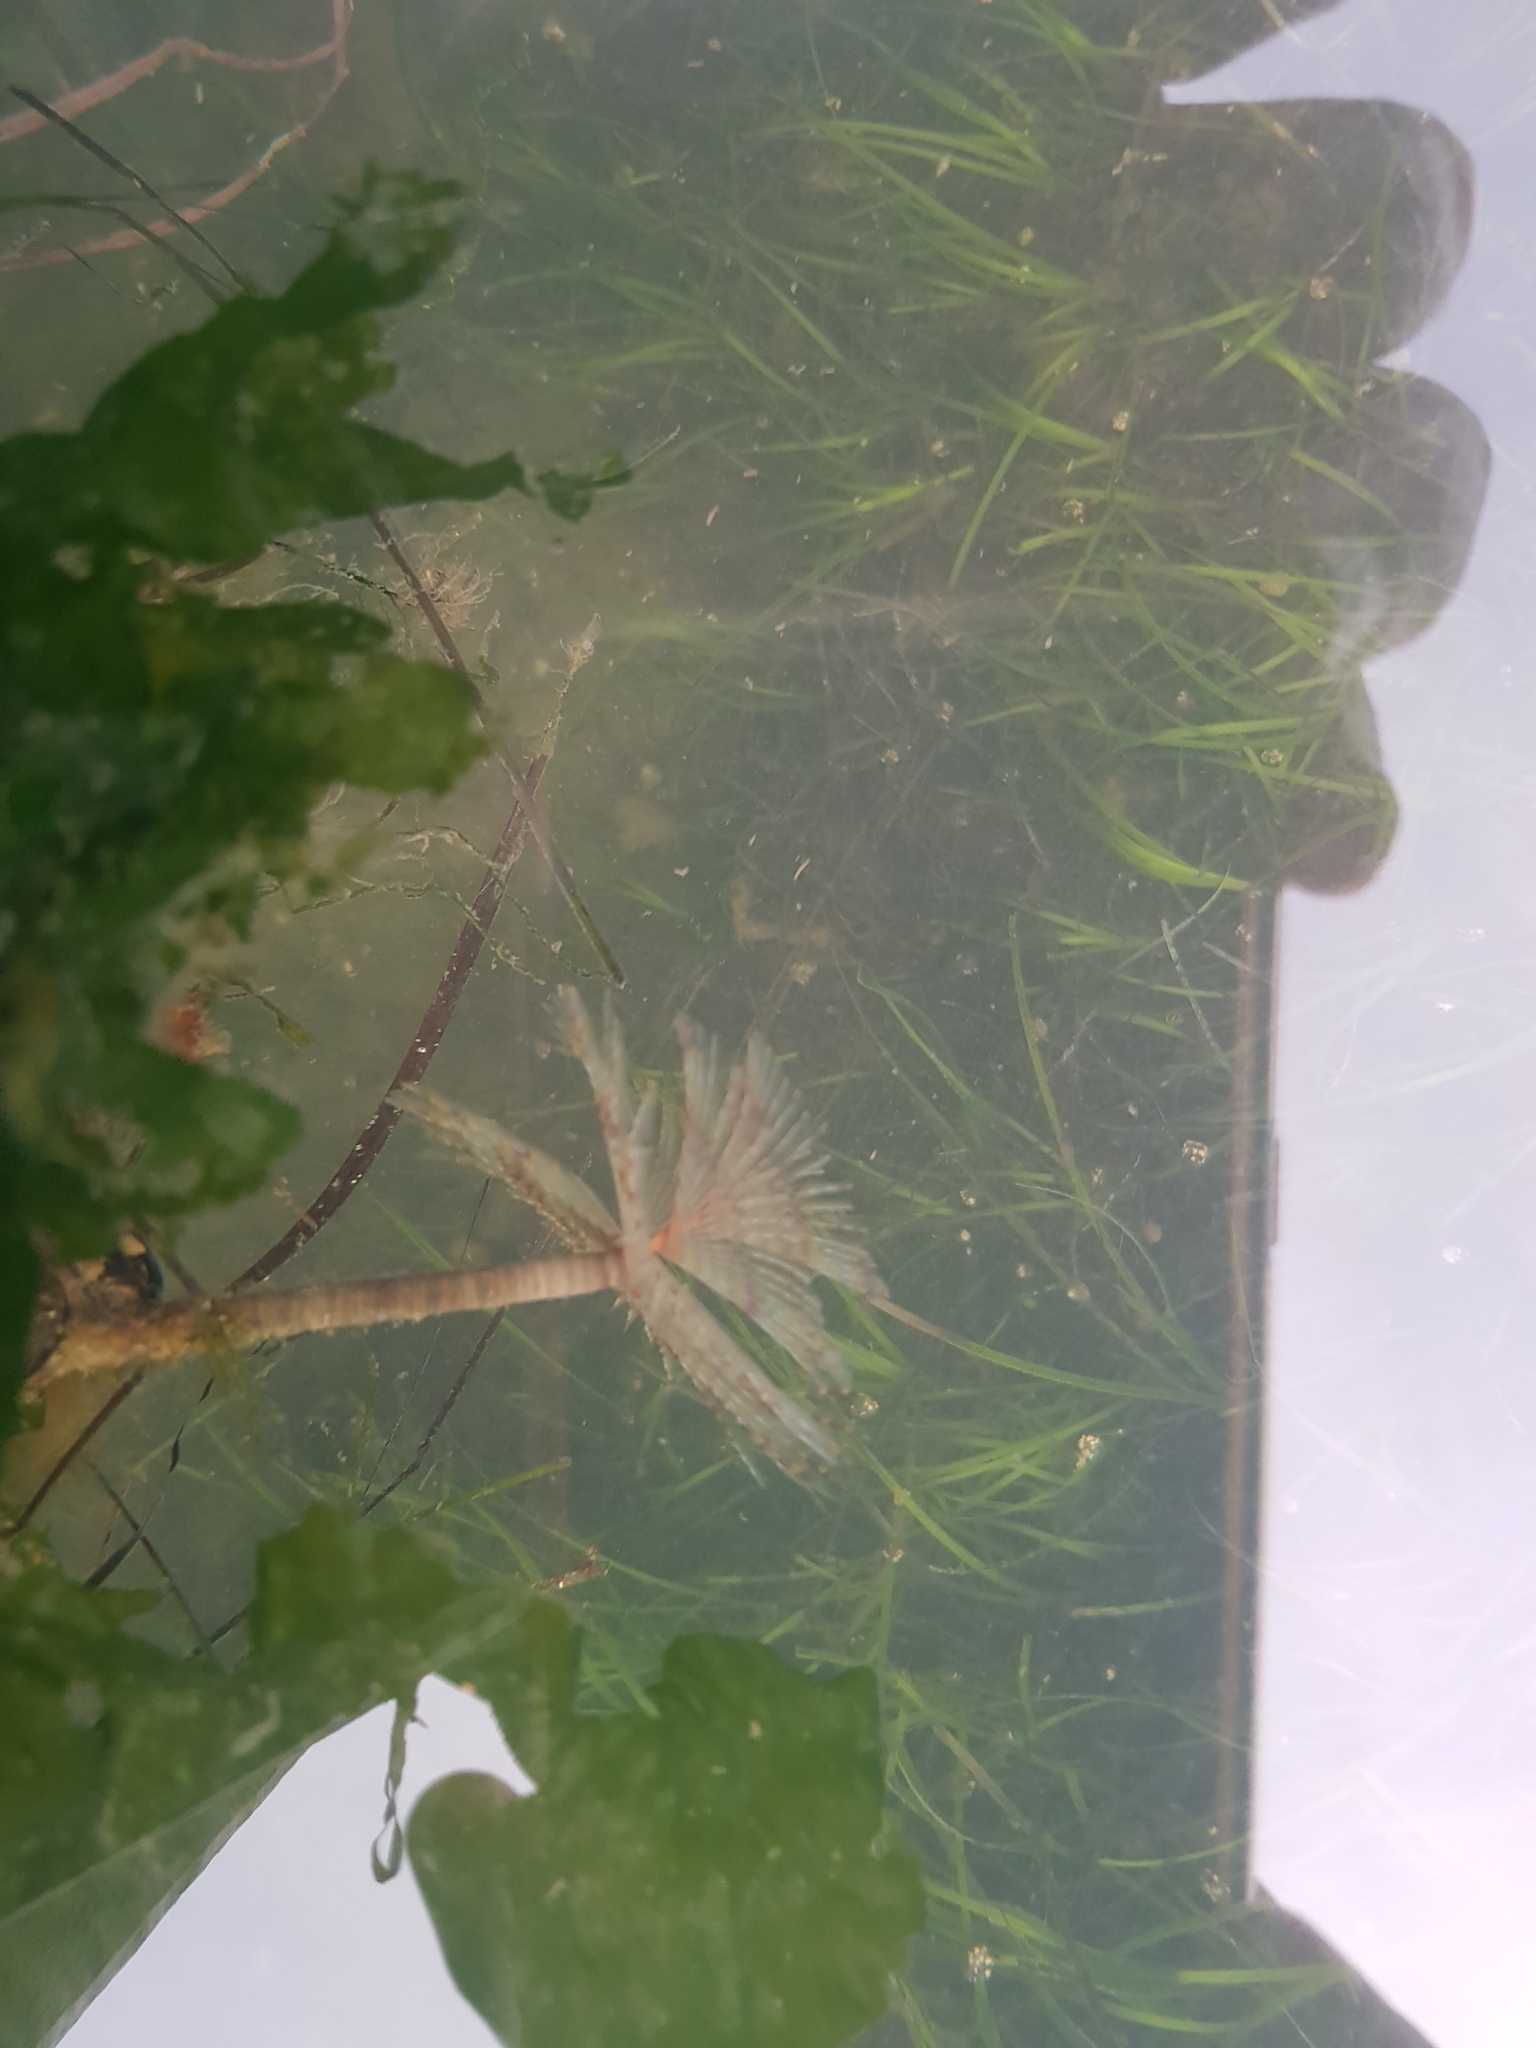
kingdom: Animalia
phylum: Annelida
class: Polychaeta
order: Sabellida
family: Sabellidae
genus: Sabella
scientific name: Sabella spallanzanii
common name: Feather duster worm
